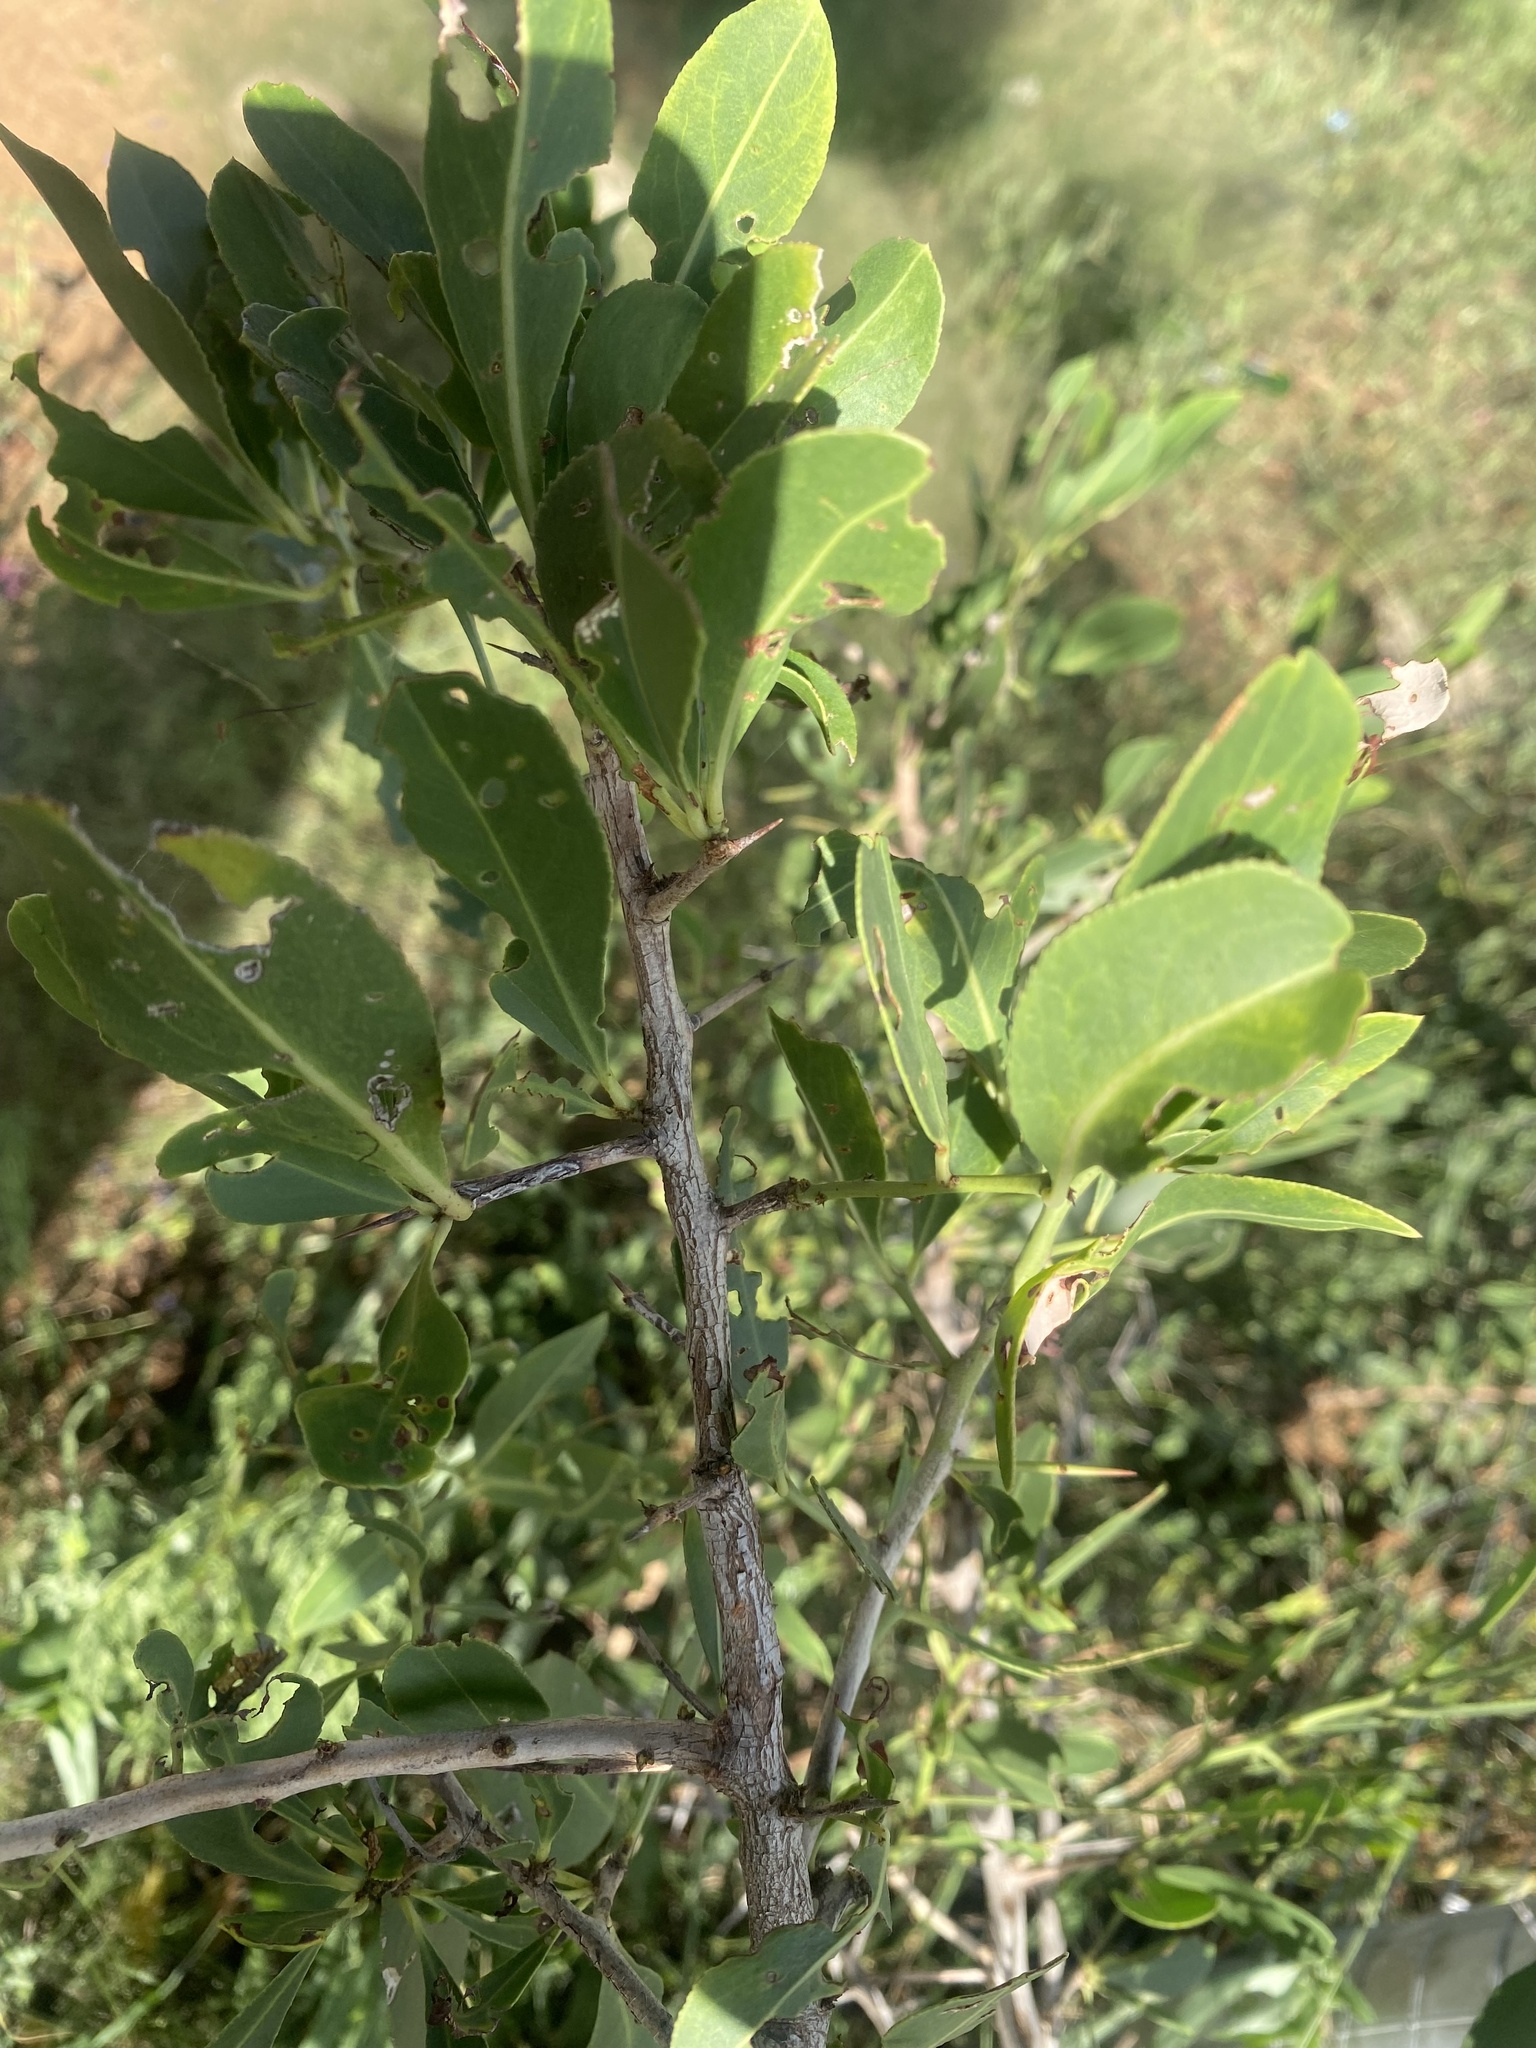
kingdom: Plantae
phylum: Tracheophyta
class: Magnoliopsida
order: Celastrales
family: Celastraceae
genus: Gymnosporia
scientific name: Gymnosporia senegalensis
